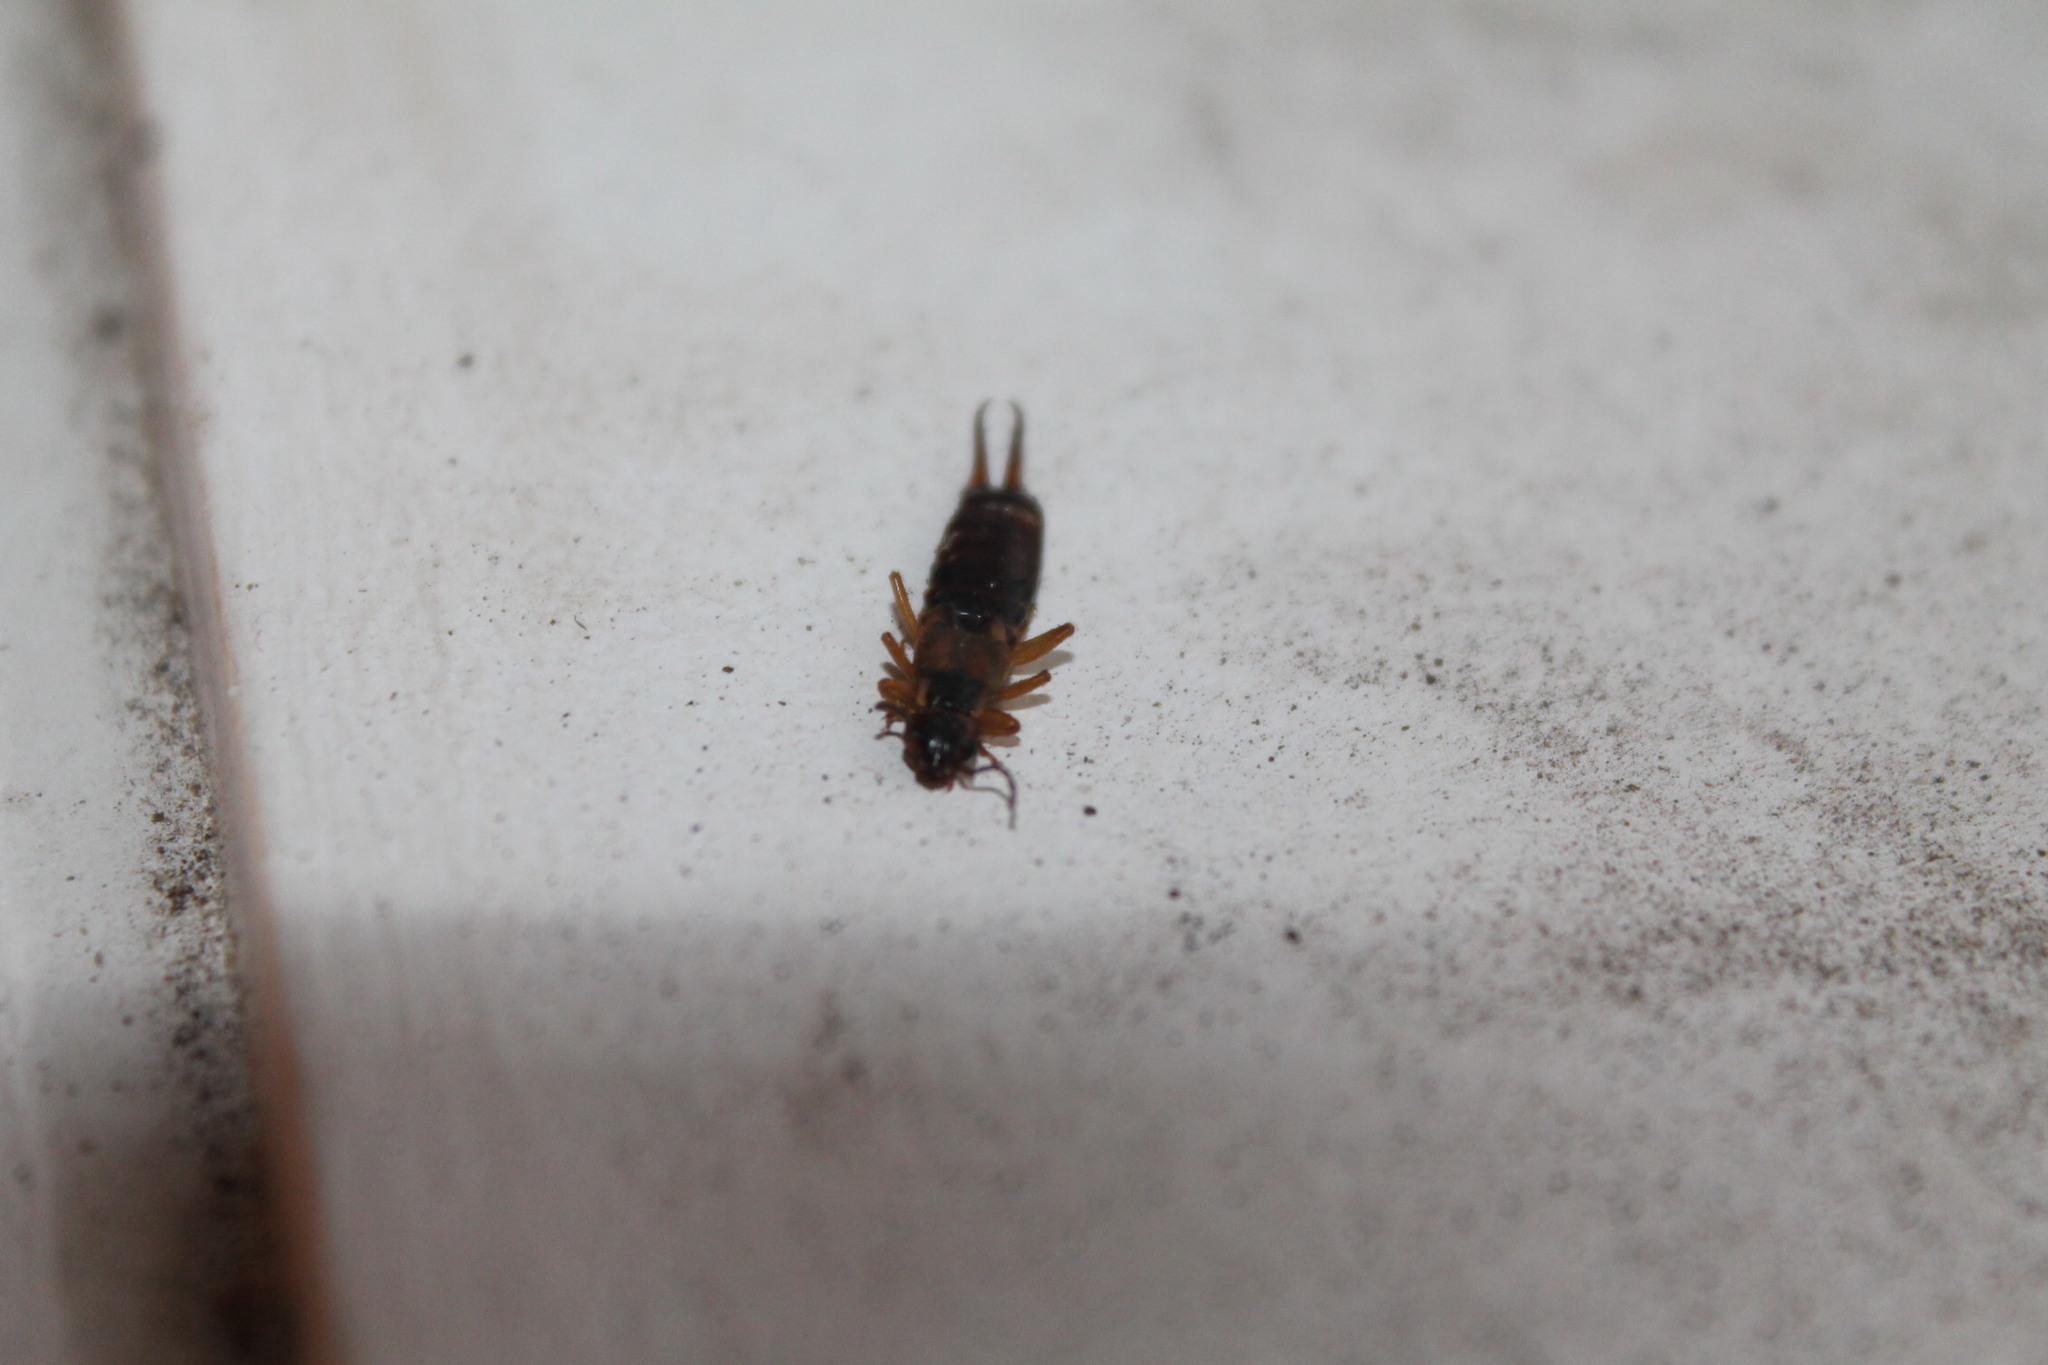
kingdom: Animalia
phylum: Arthropoda
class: Insecta
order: Dermaptera
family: Forficulidae
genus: Forficula
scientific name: Forficula
